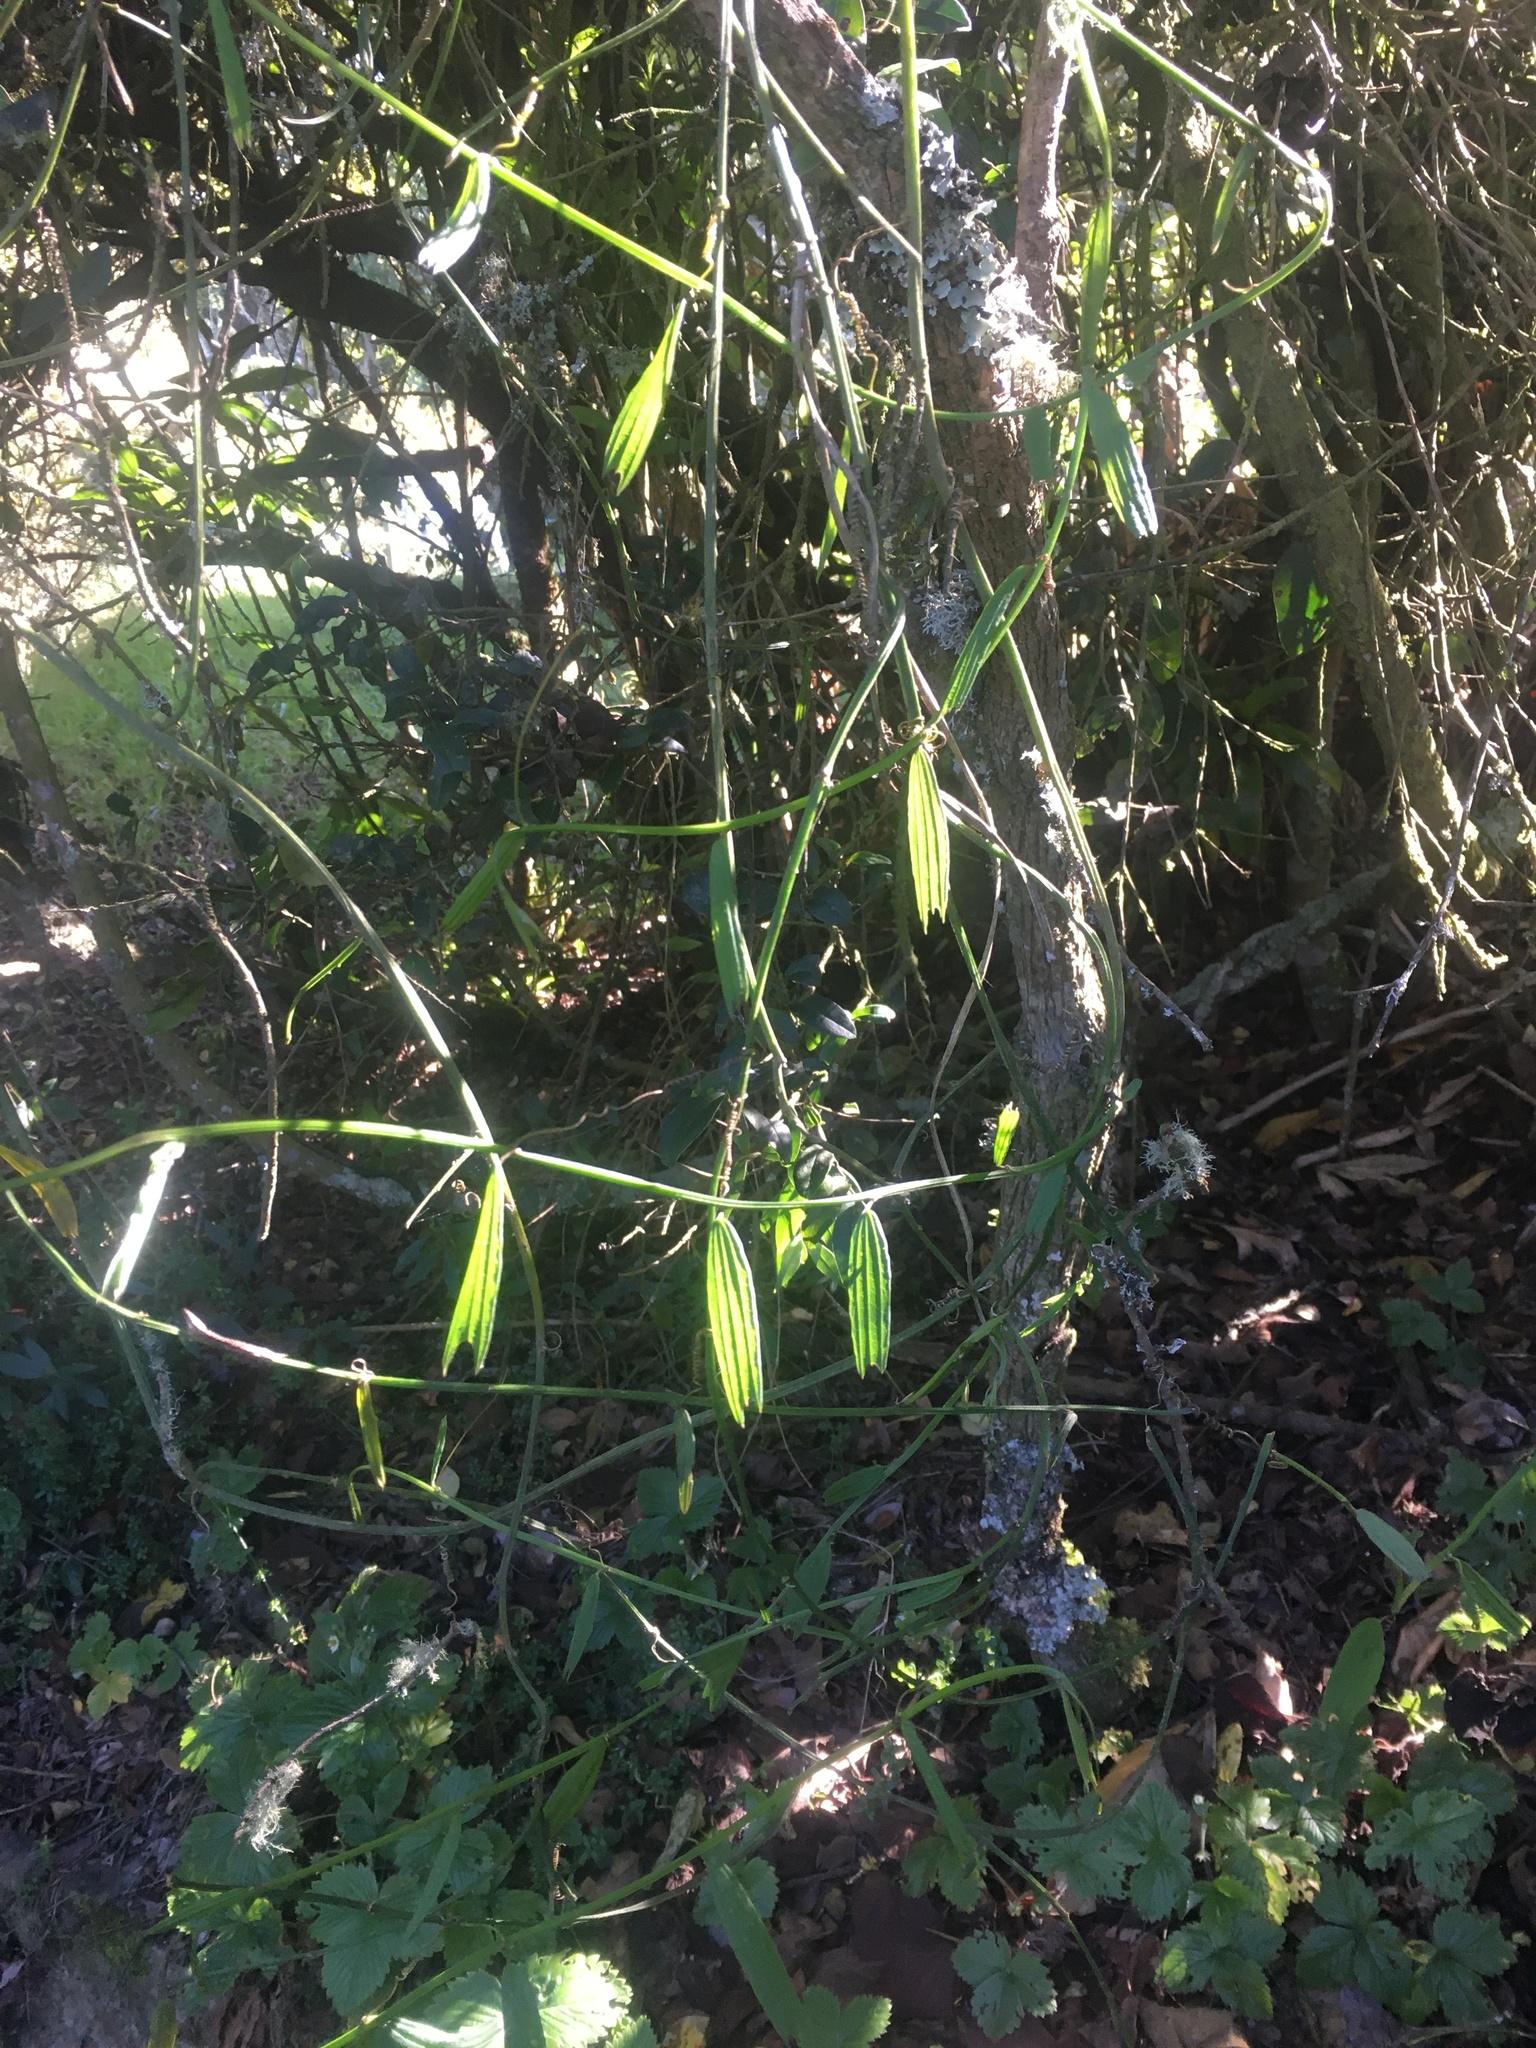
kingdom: Plantae
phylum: Tracheophyta
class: Magnoliopsida
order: Malpighiales
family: Passifloraceae
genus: Passiflora
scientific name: Passiflora bicuspidata
